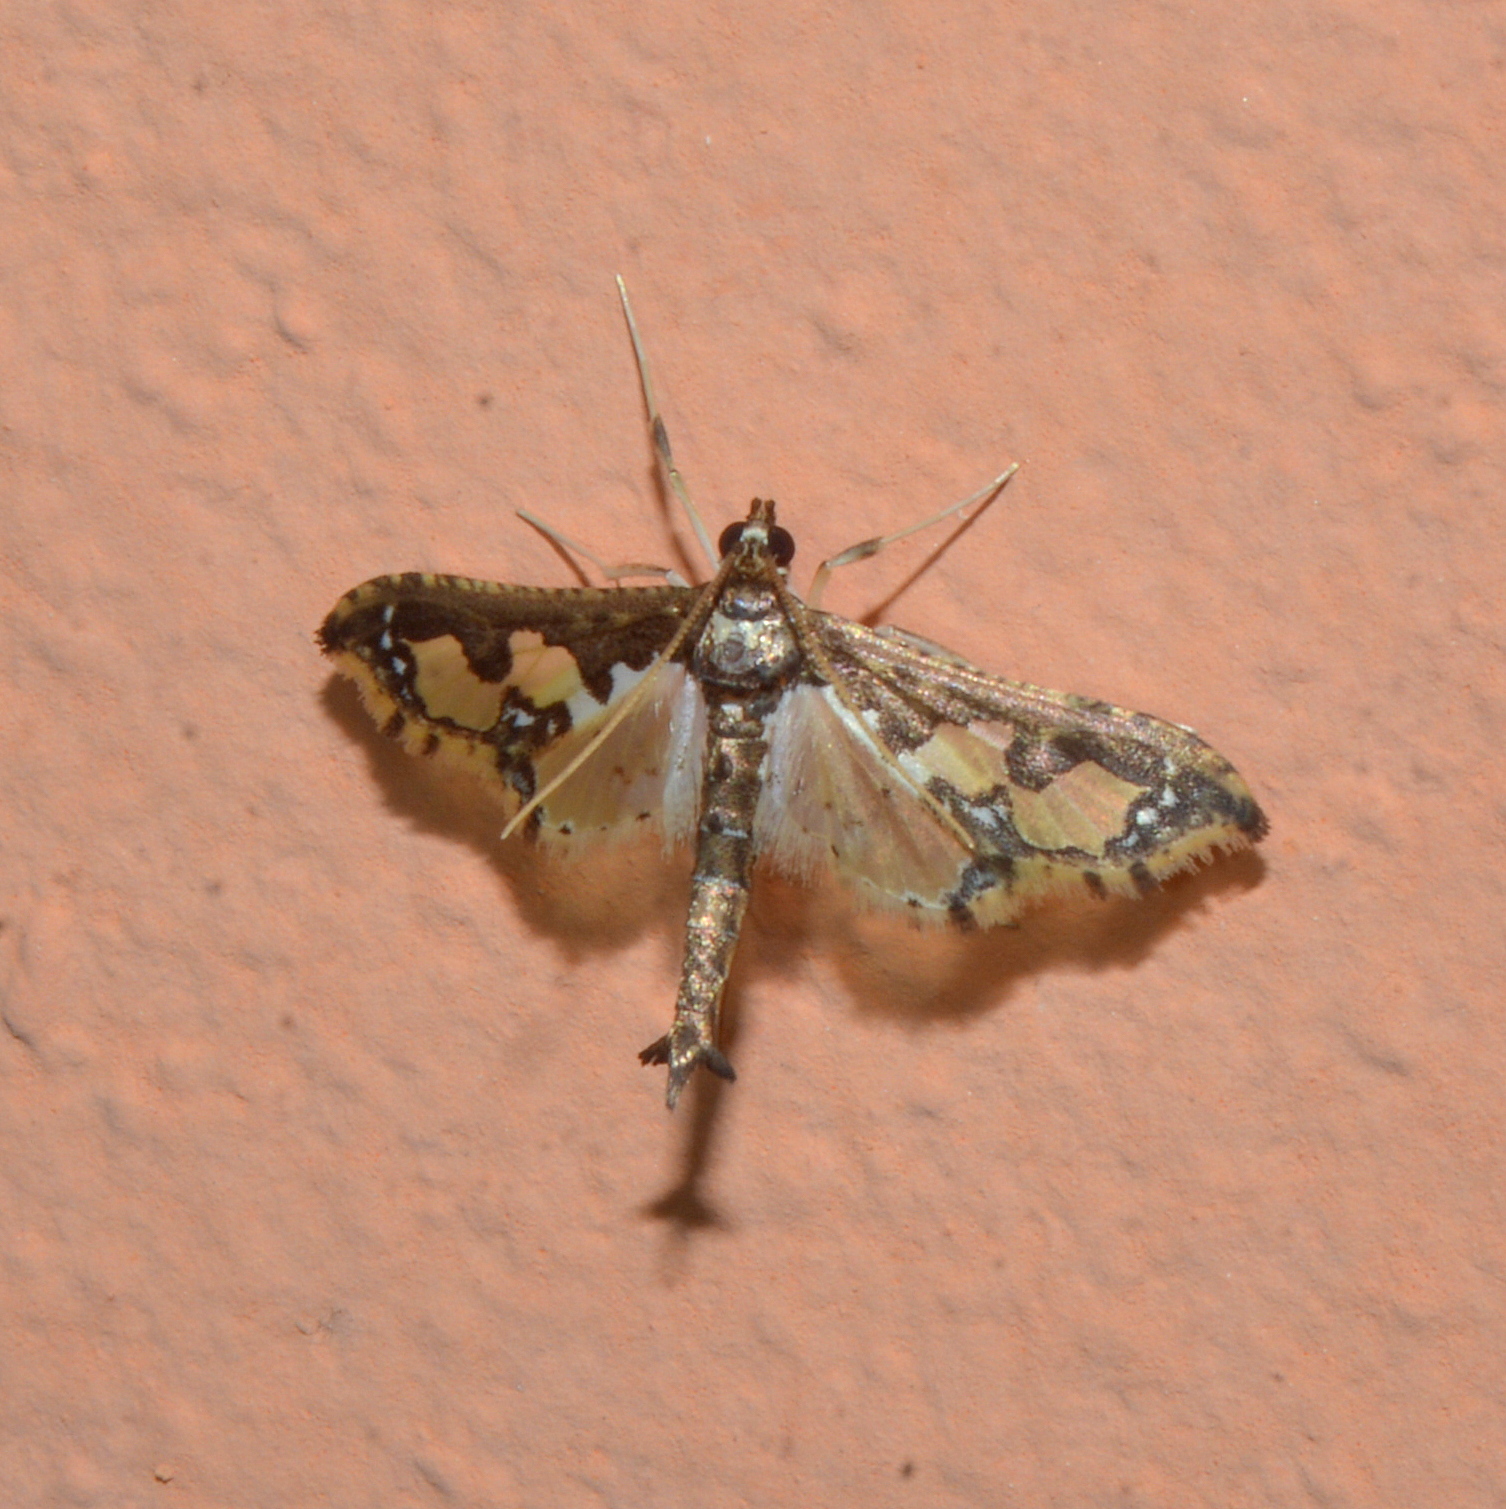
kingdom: Animalia
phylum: Arthropoda
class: Insecta
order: Lepidoptera
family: Crambidae
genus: Gonocausta
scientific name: Gonocausta
